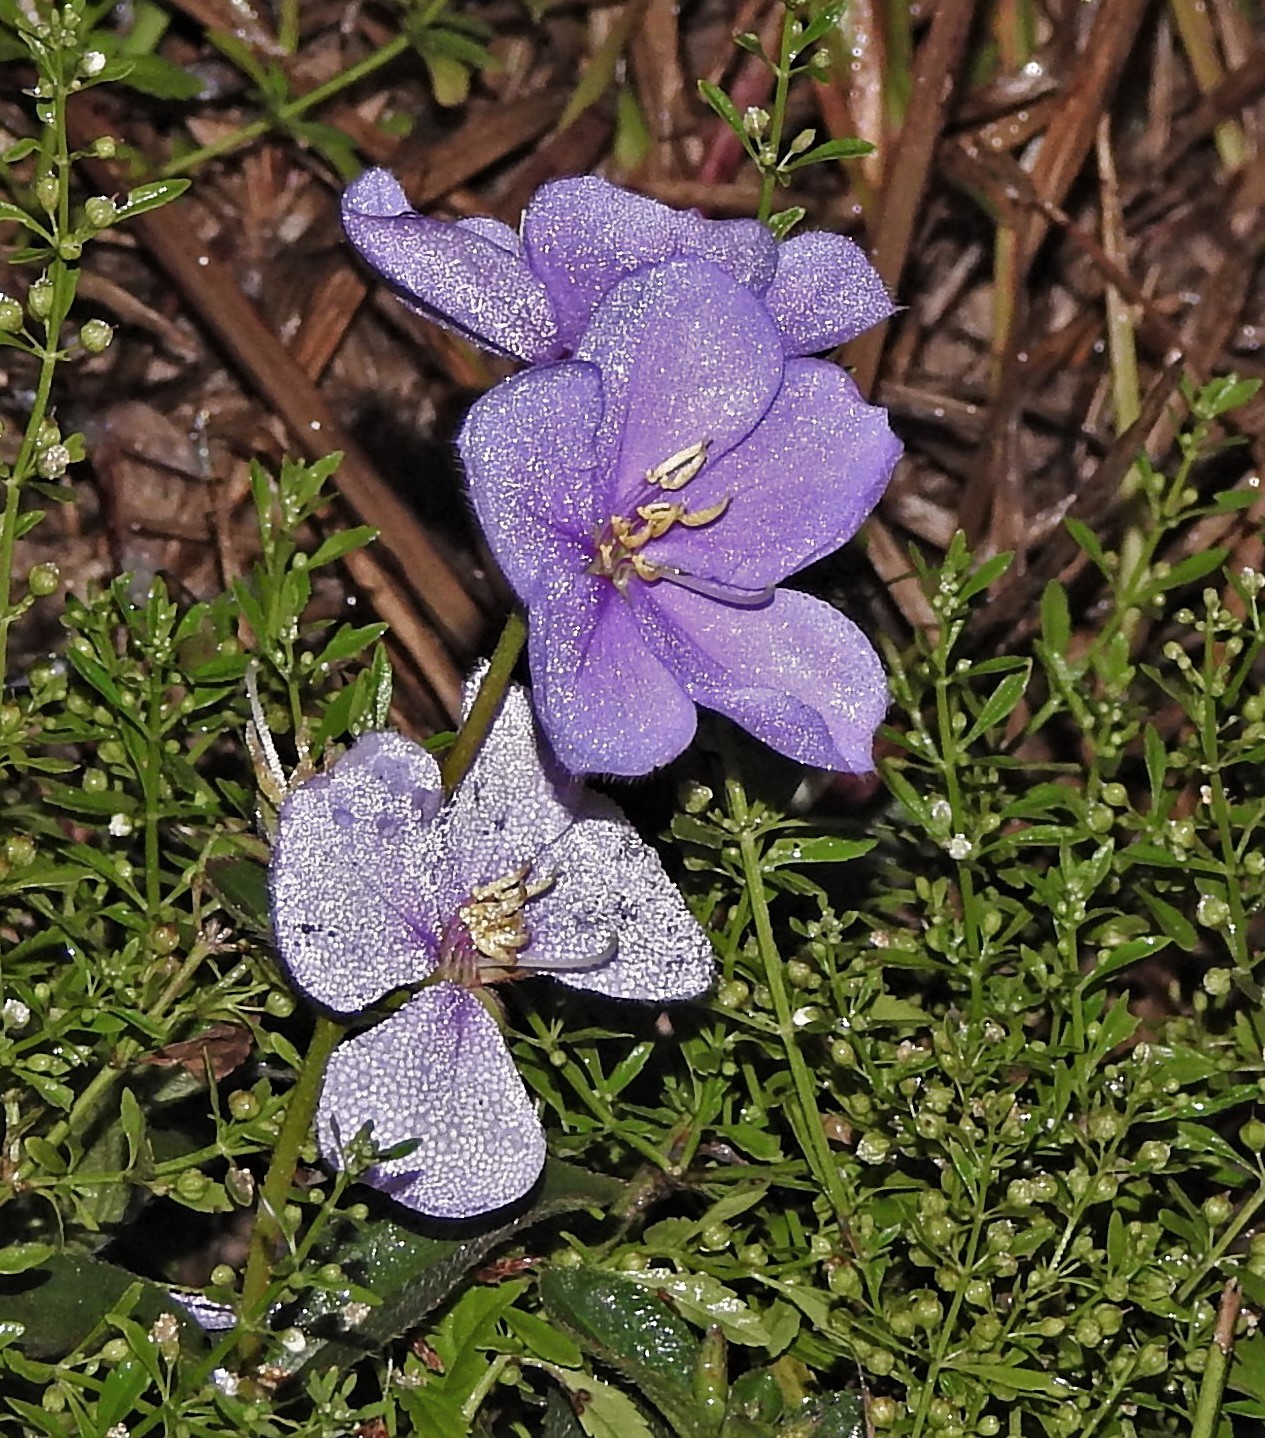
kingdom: Plantae
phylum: Tracheophyta
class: Magnoliopsida
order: Myrtales
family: Melastomataceae
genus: Chaetogastra
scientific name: Chaetogastra gracilis
